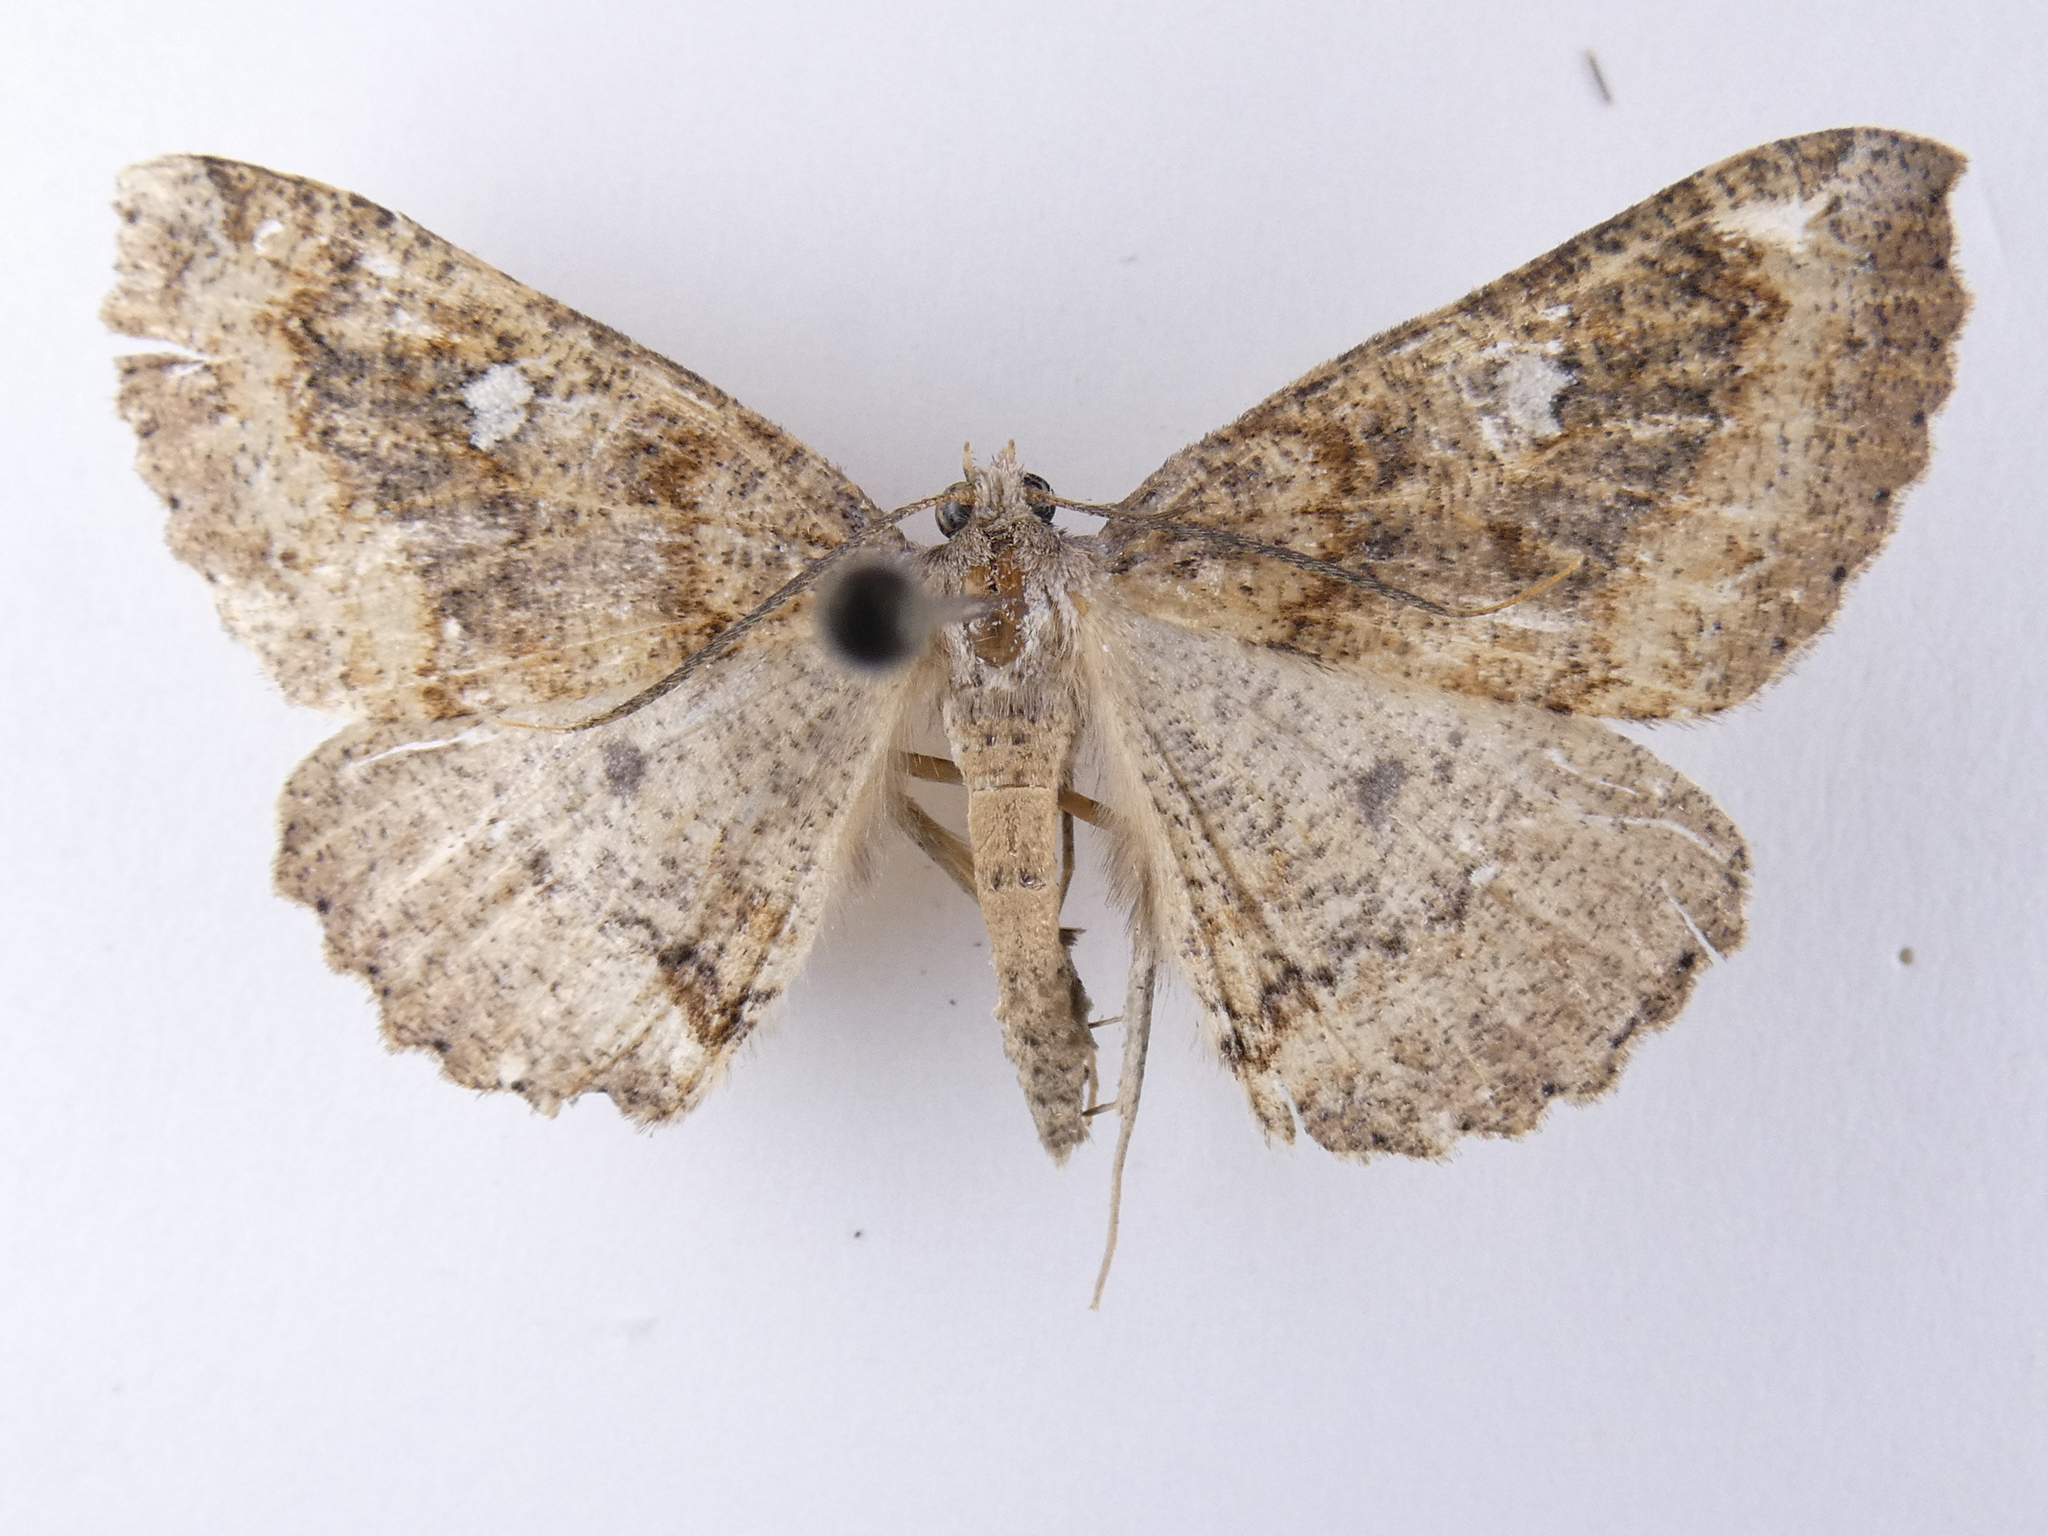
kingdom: Animalia
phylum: Arthropoda
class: Insecta
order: Lepidoptera
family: Geometridae
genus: Cleora
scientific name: Cleora scriptaria
